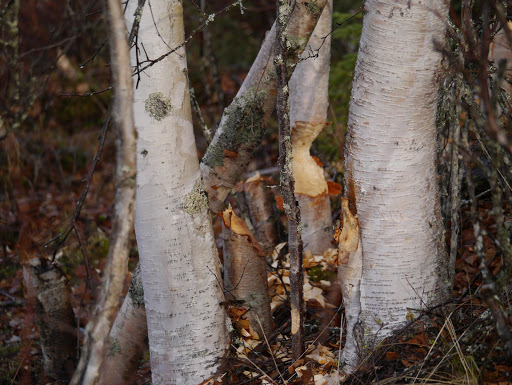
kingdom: Animalia
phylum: Chordata
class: Mammalia
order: Rodentia
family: Castoridae
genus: Castor
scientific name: Castor canadensis
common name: American beaver
